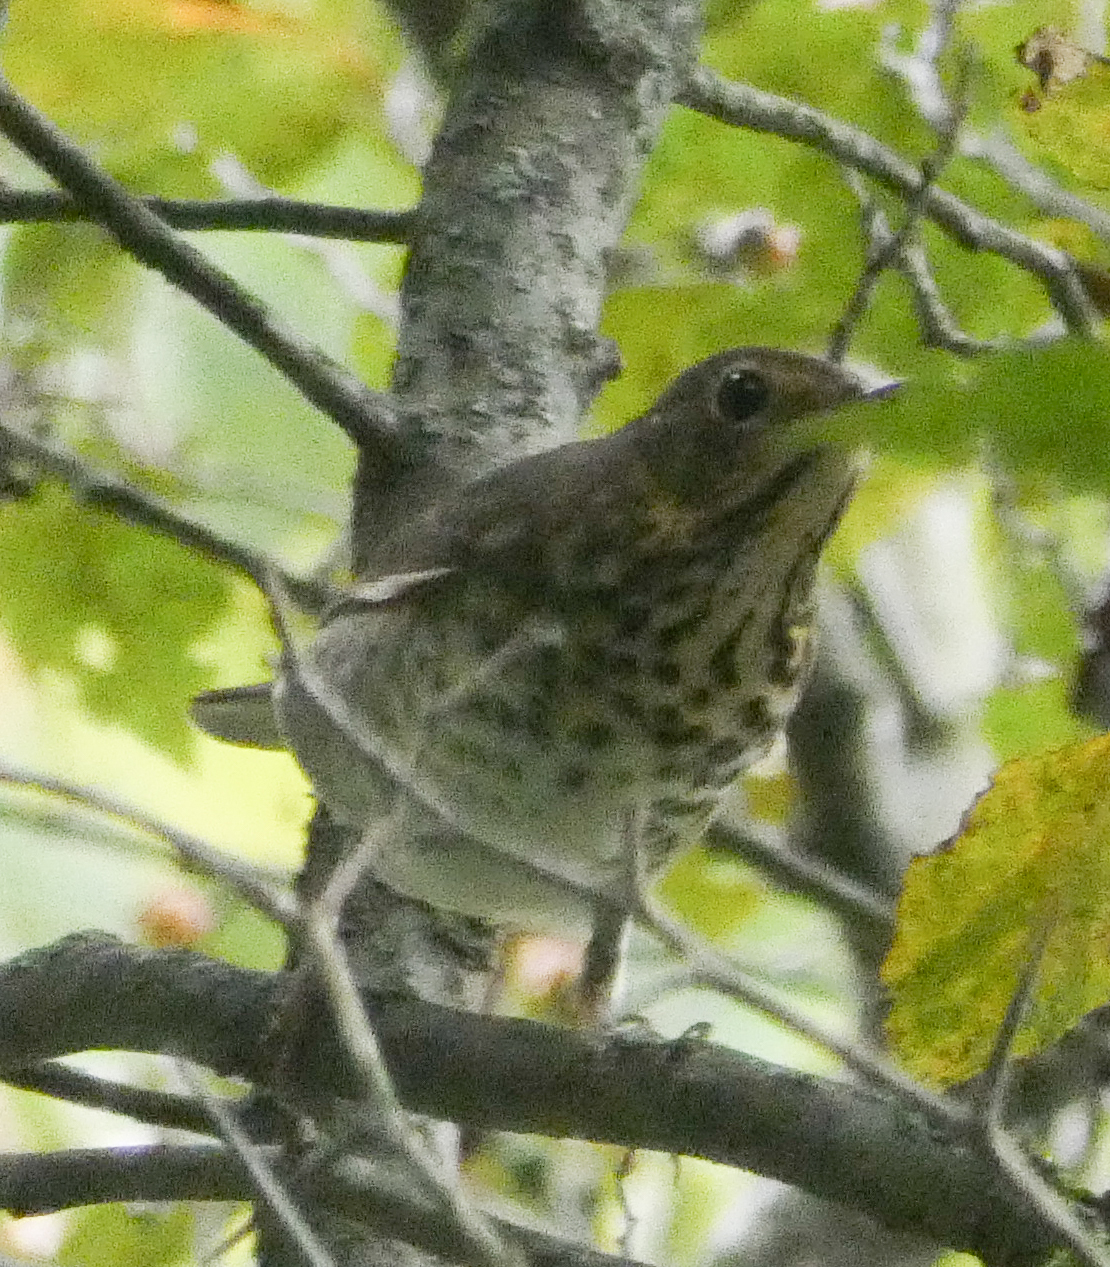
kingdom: Animalia
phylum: Chordata
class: Aves
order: Passeriformes
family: Turdidae
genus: Catharus
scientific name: Catharus ustulatus
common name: Swainson's thrush
